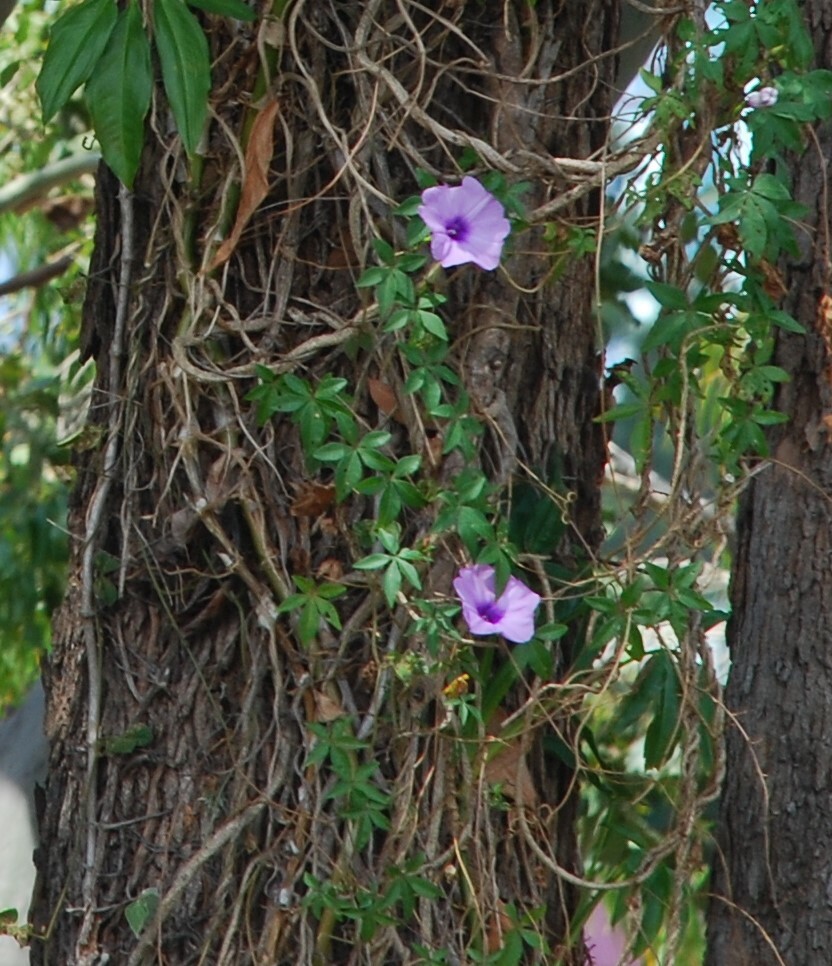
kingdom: Plantae
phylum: Tracheophyta
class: Magnoliopsida
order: Solanales
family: Convolvulaceae
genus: Ipomoea
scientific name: Ipomoea cairica
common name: Mile a minute vine
